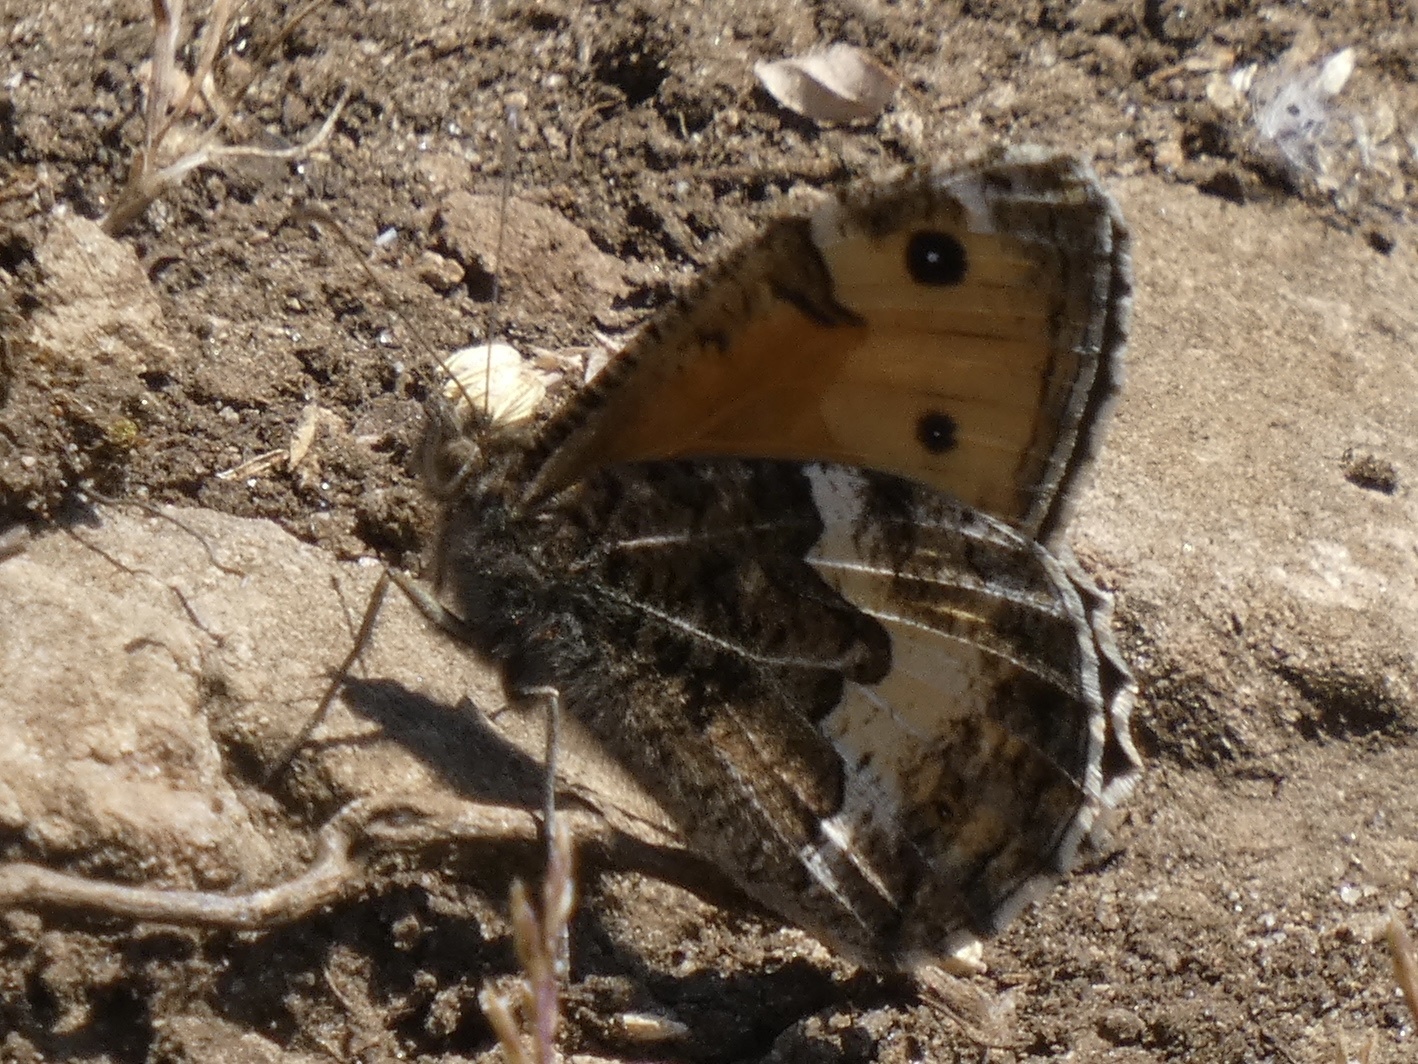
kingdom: Animalia
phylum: Arthropoda
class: Insecta
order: Lepidoptera
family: Nymphalidae
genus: Hipparchia
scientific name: Hipparchia semele
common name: Grayling
